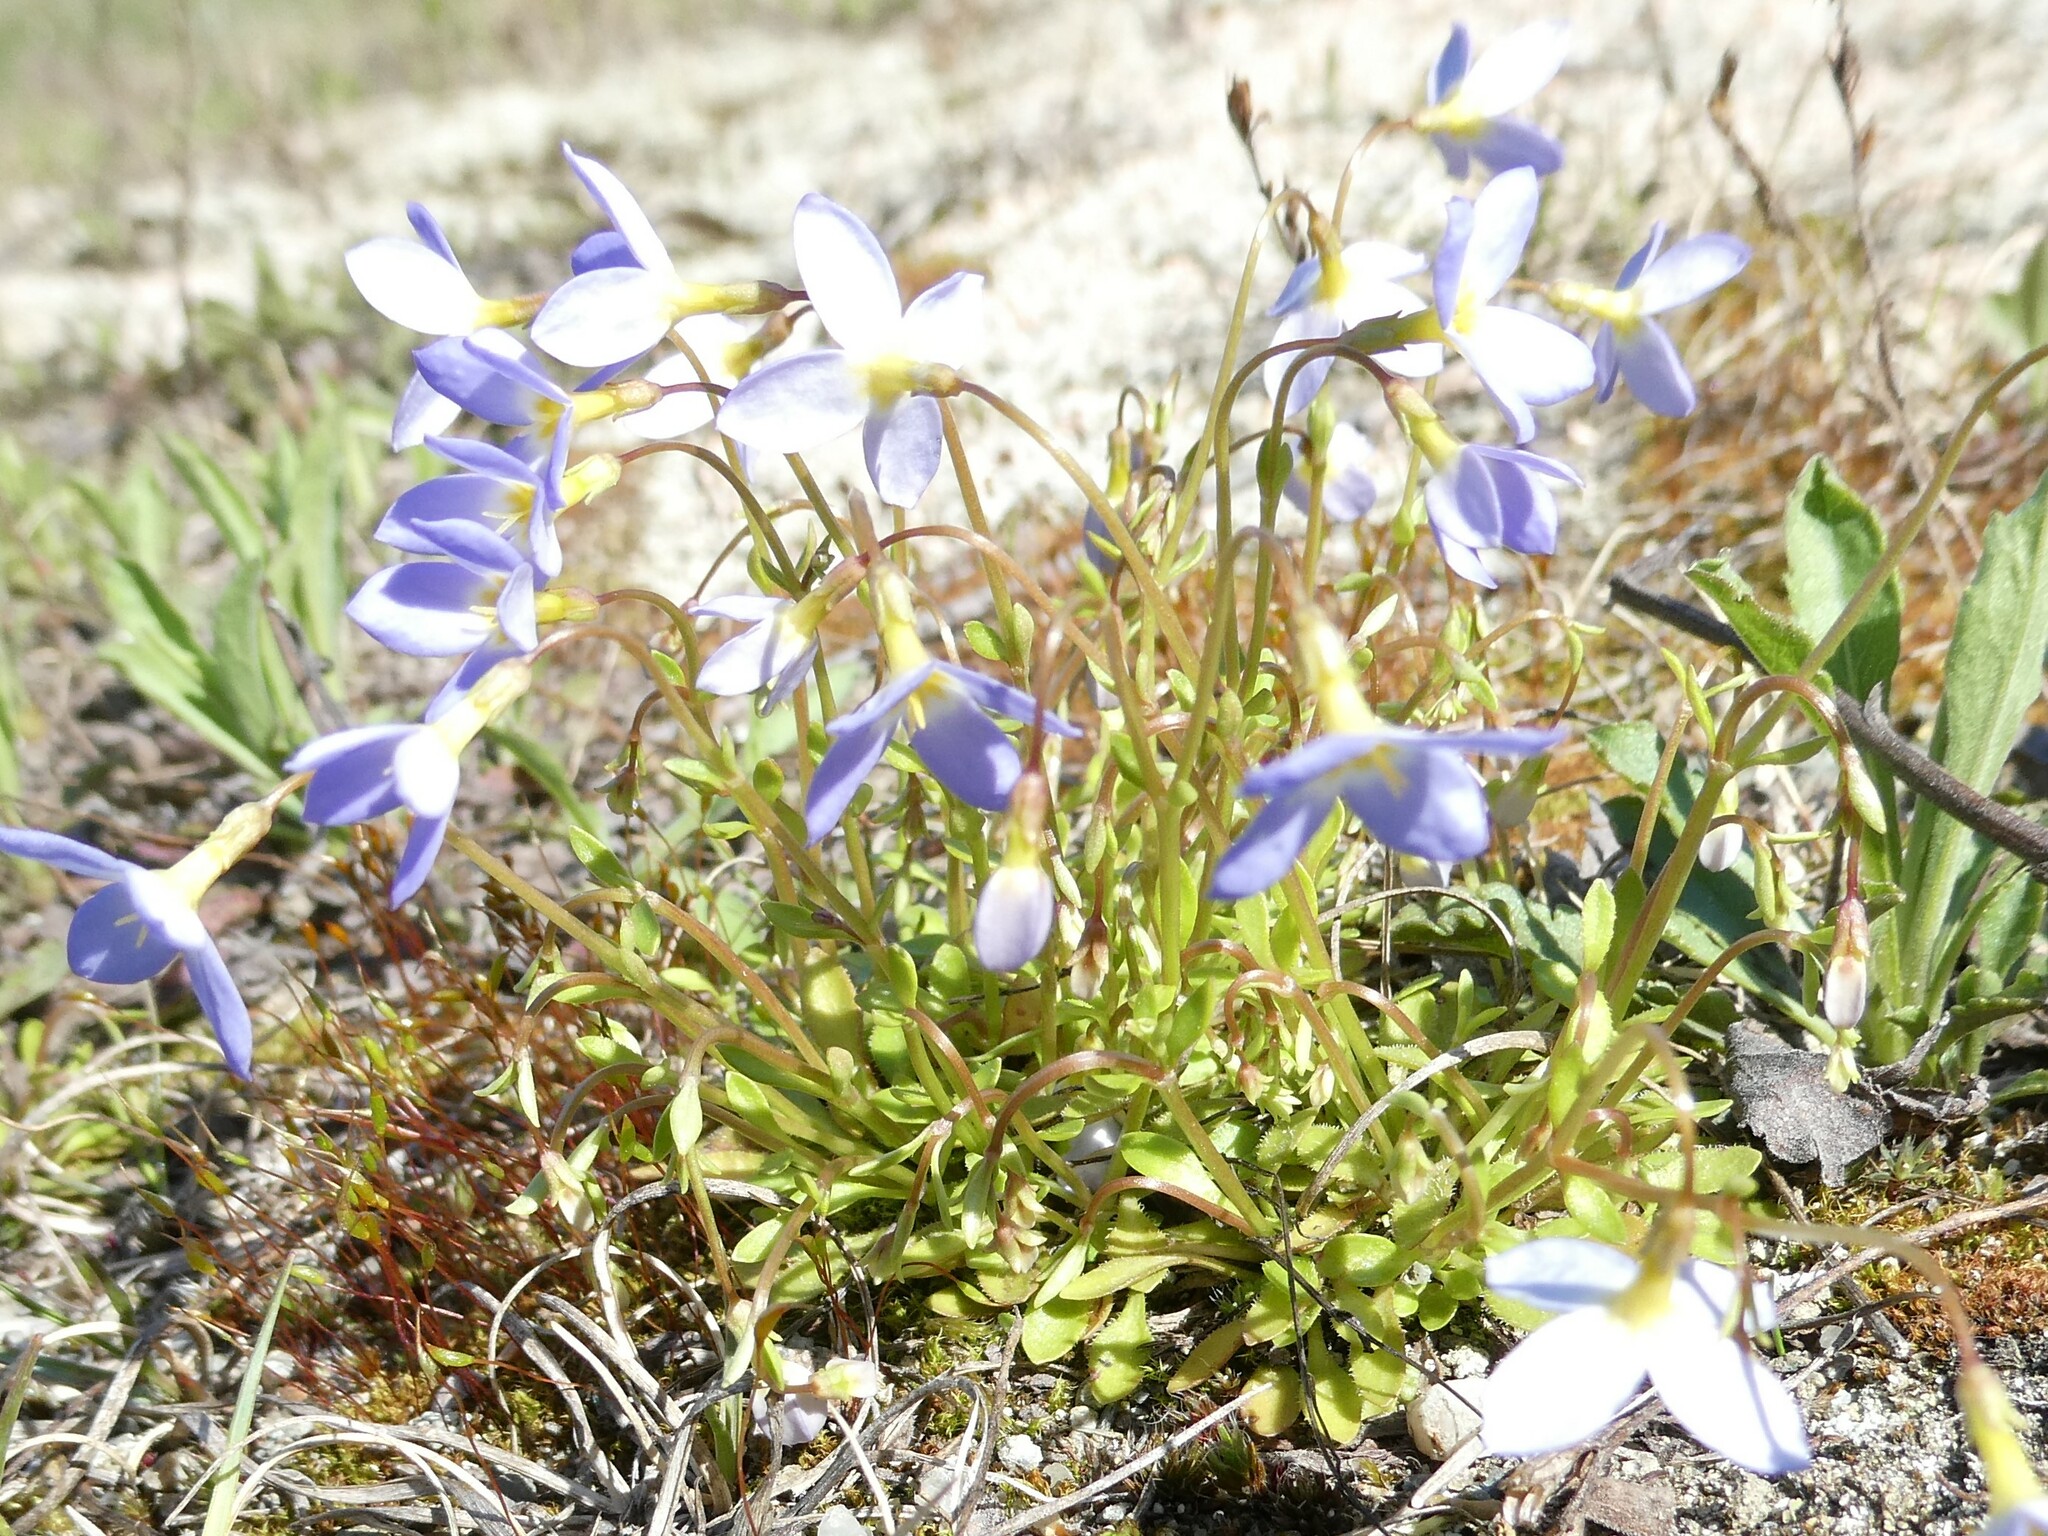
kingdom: Plantae
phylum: Tracheophyta
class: Magnoliopsida
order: Gentianales
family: Rubiaceae
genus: Houstonia
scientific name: Houstonia caerulea
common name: Bluets
